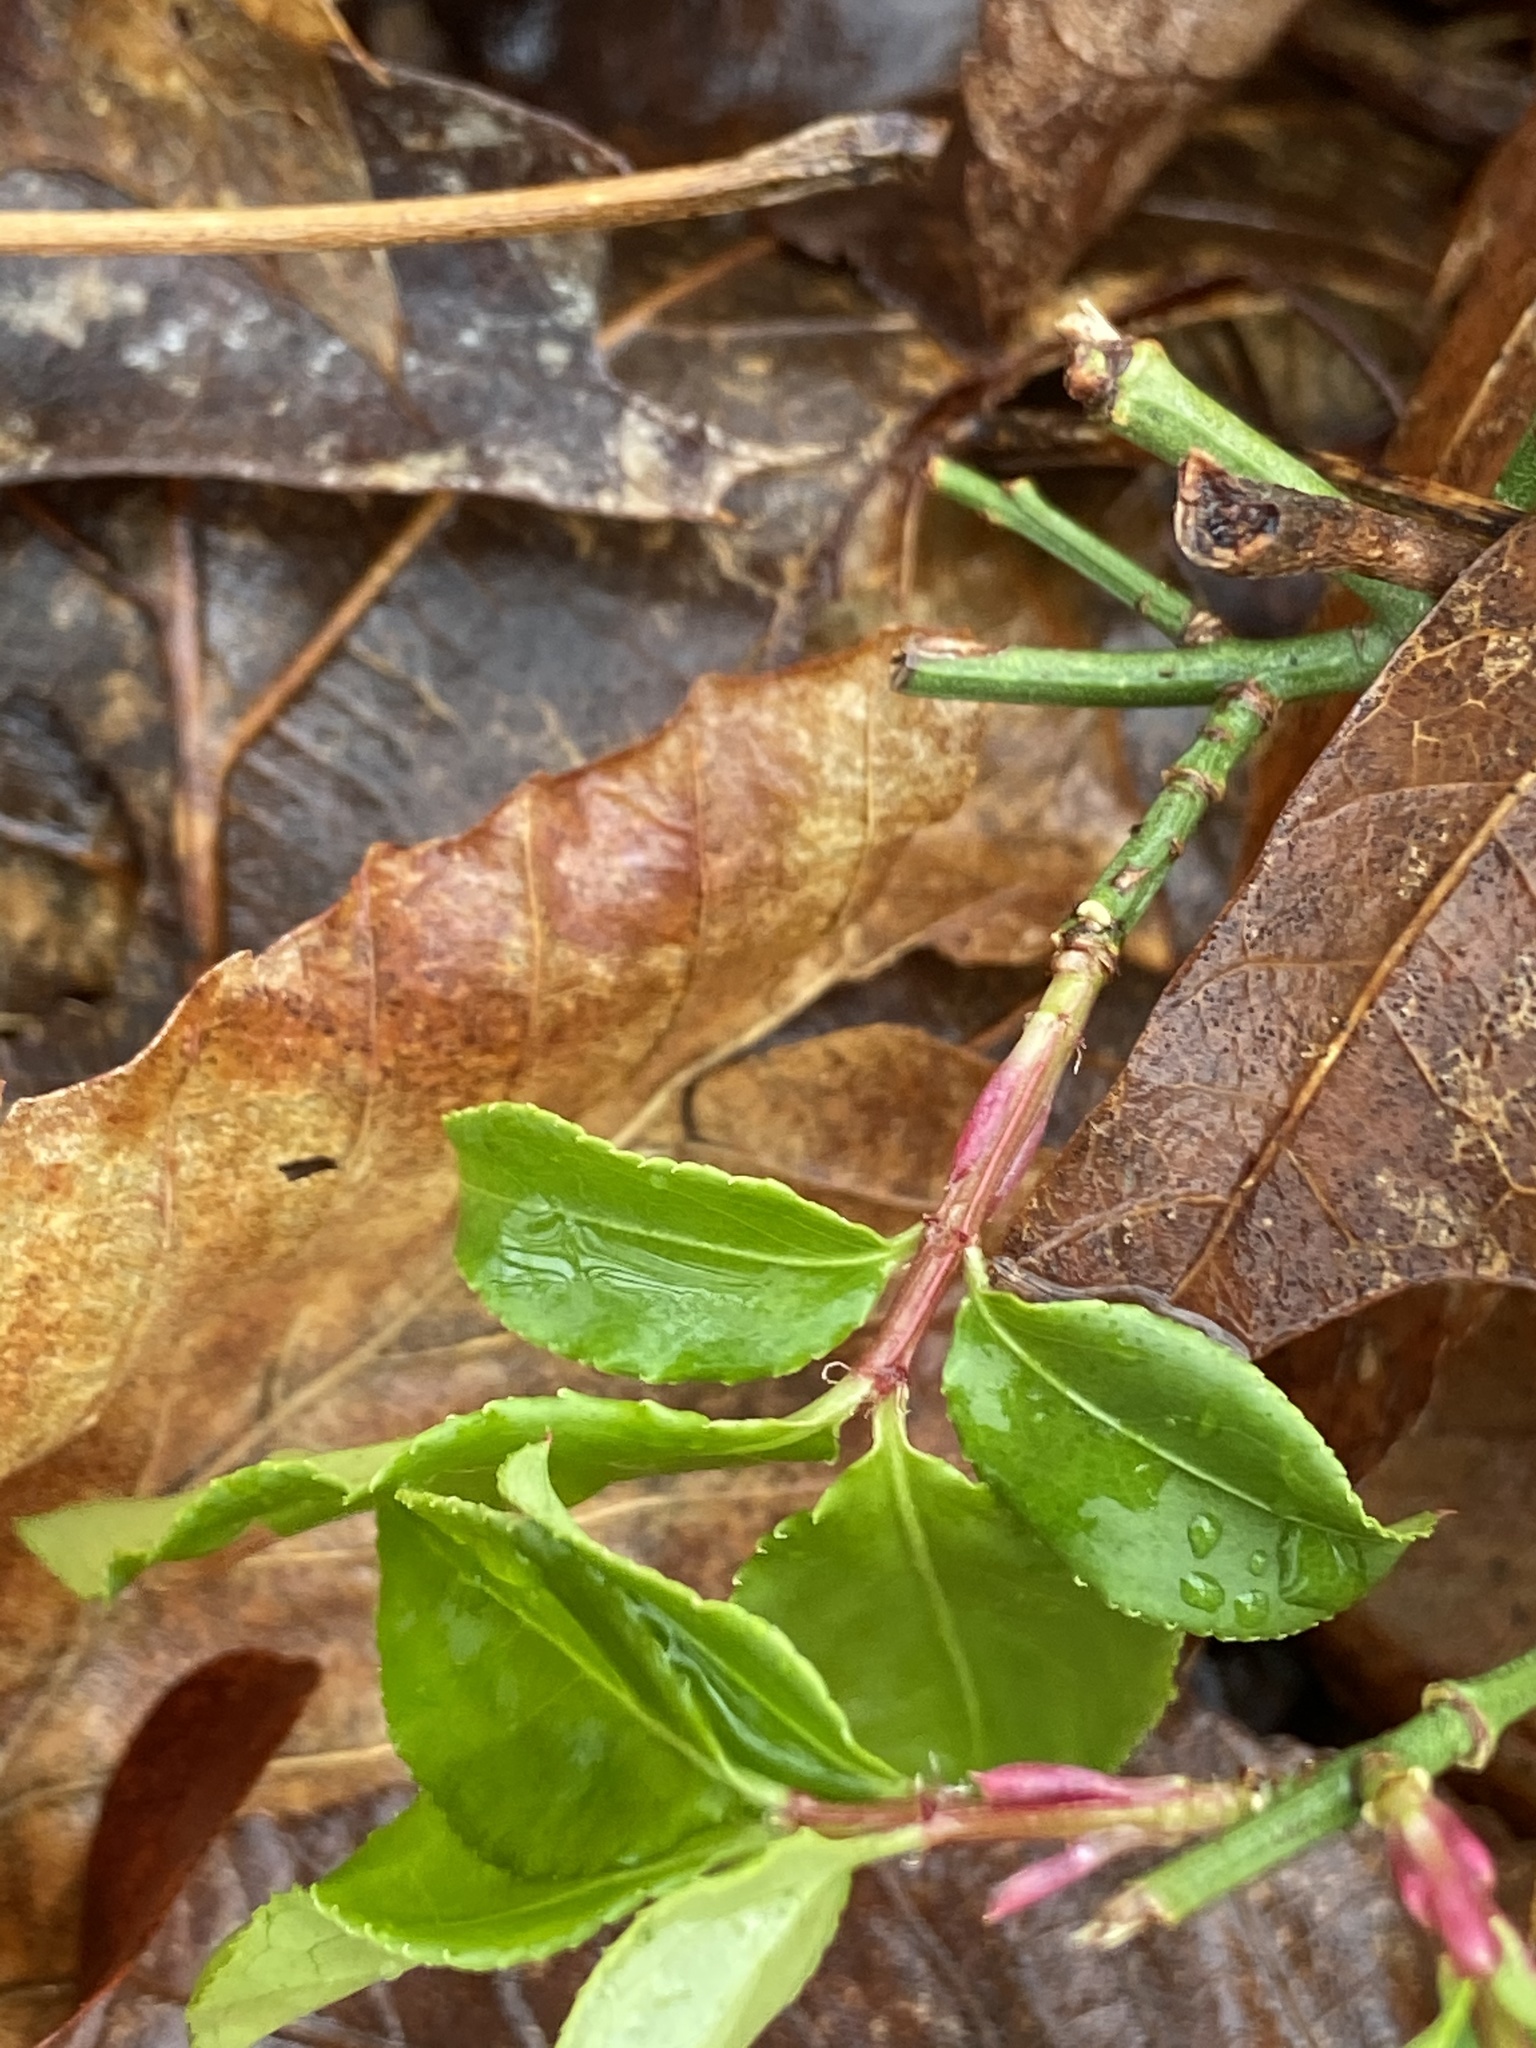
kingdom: Plantae
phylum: Tracheophyta
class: Magnoliopsida
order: Celastrales
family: Celastraceae
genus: Euonymus
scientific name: Euonymus alatus
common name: Winged euonymus
